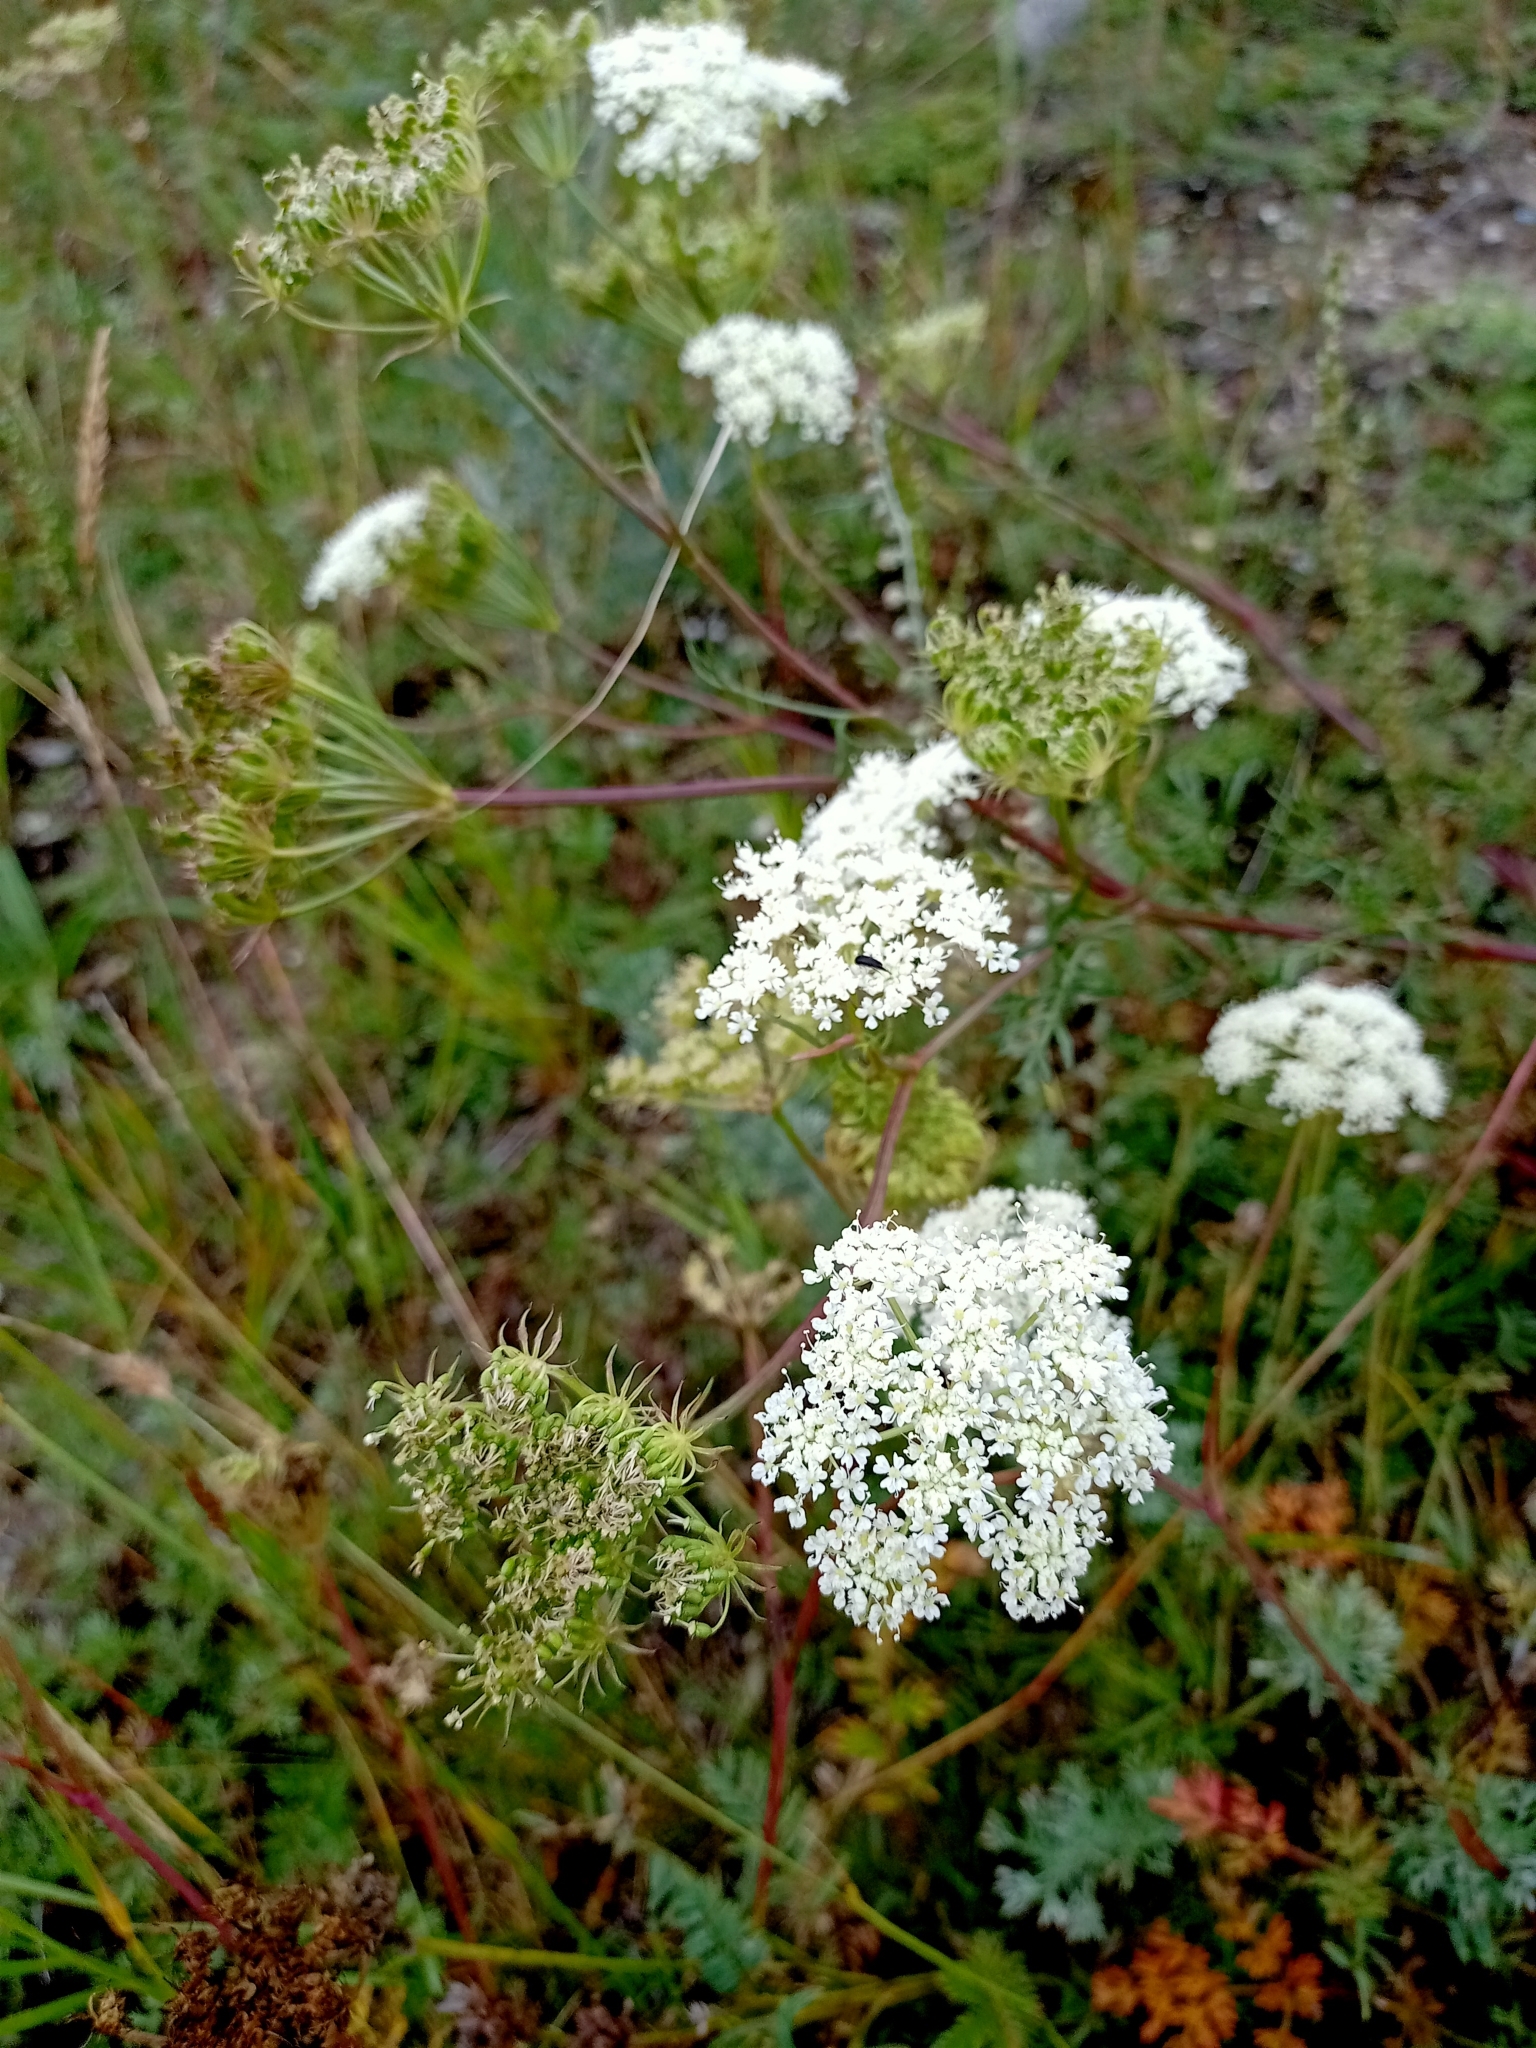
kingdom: Plantae
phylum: Tracheophyta
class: Magnoliopsida
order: Apiales
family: Apiaceae
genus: Kitagawia
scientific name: Kitagawia baicalensis
